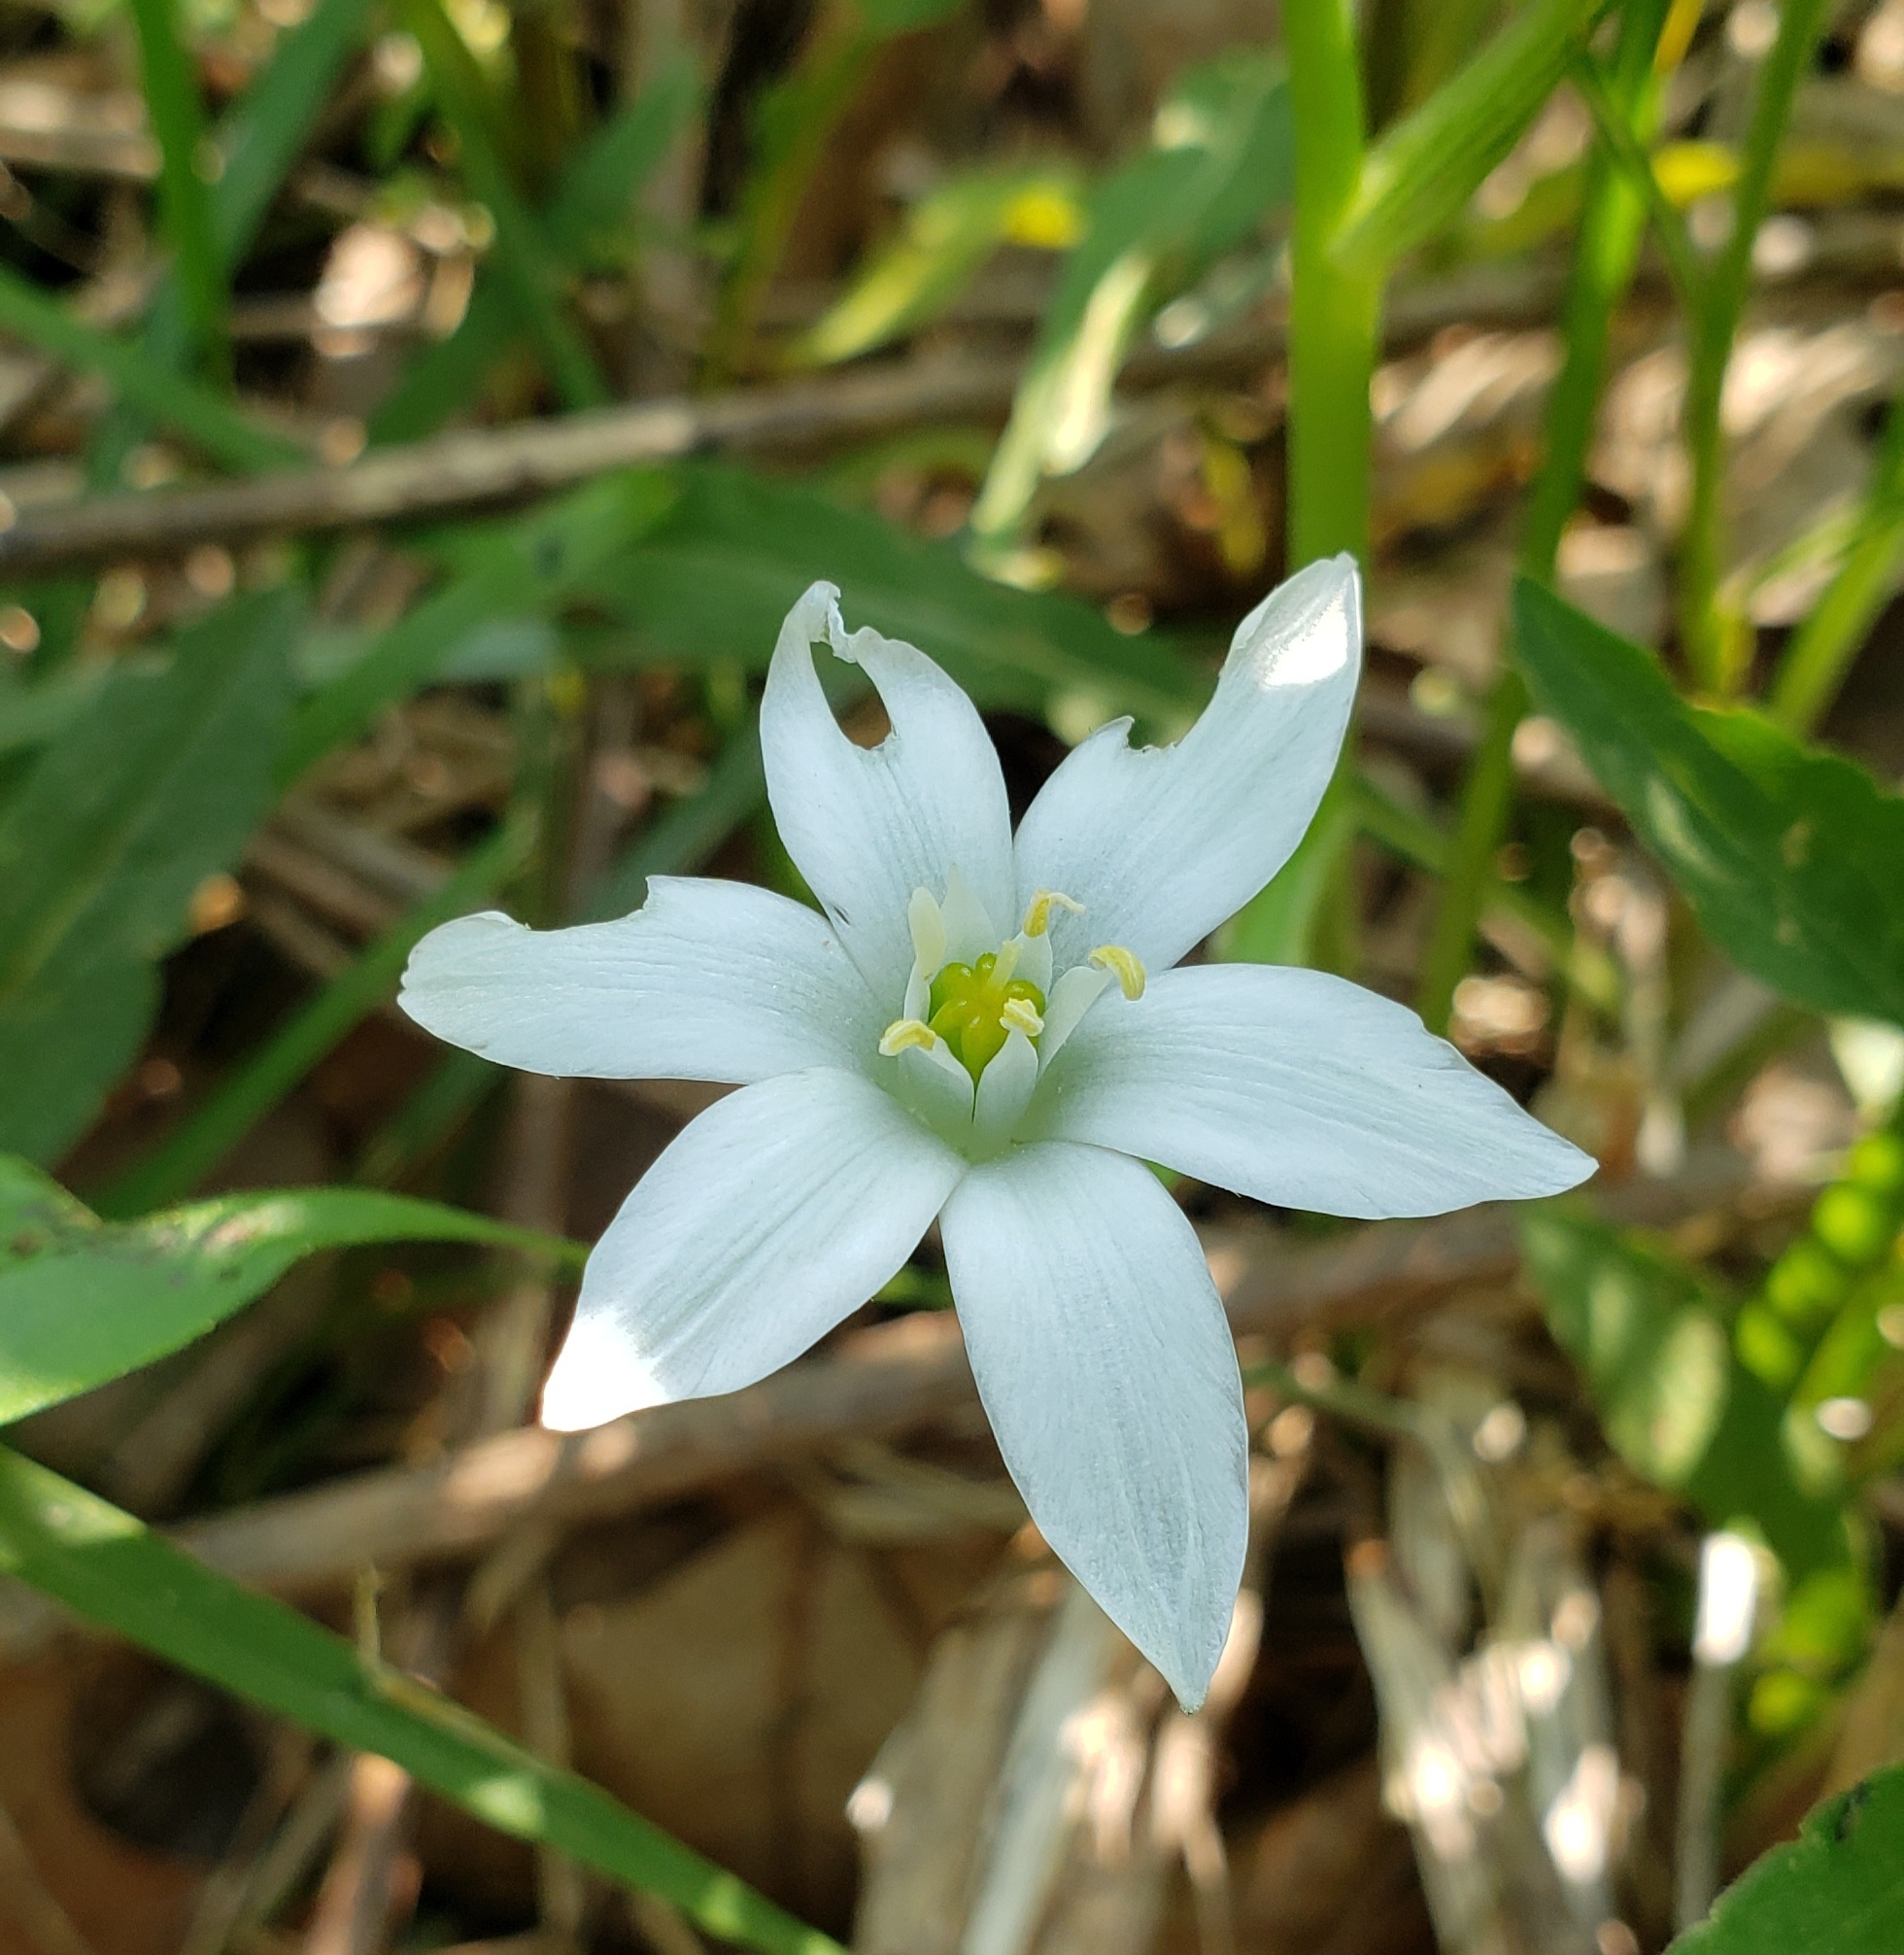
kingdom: Plantae
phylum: Tracheophyta
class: Liliopsida
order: Asparagales
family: Asparagaceae
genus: Ornithogalum
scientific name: Ornithogalum umbellatum
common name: Garden star-of-bethlehem
